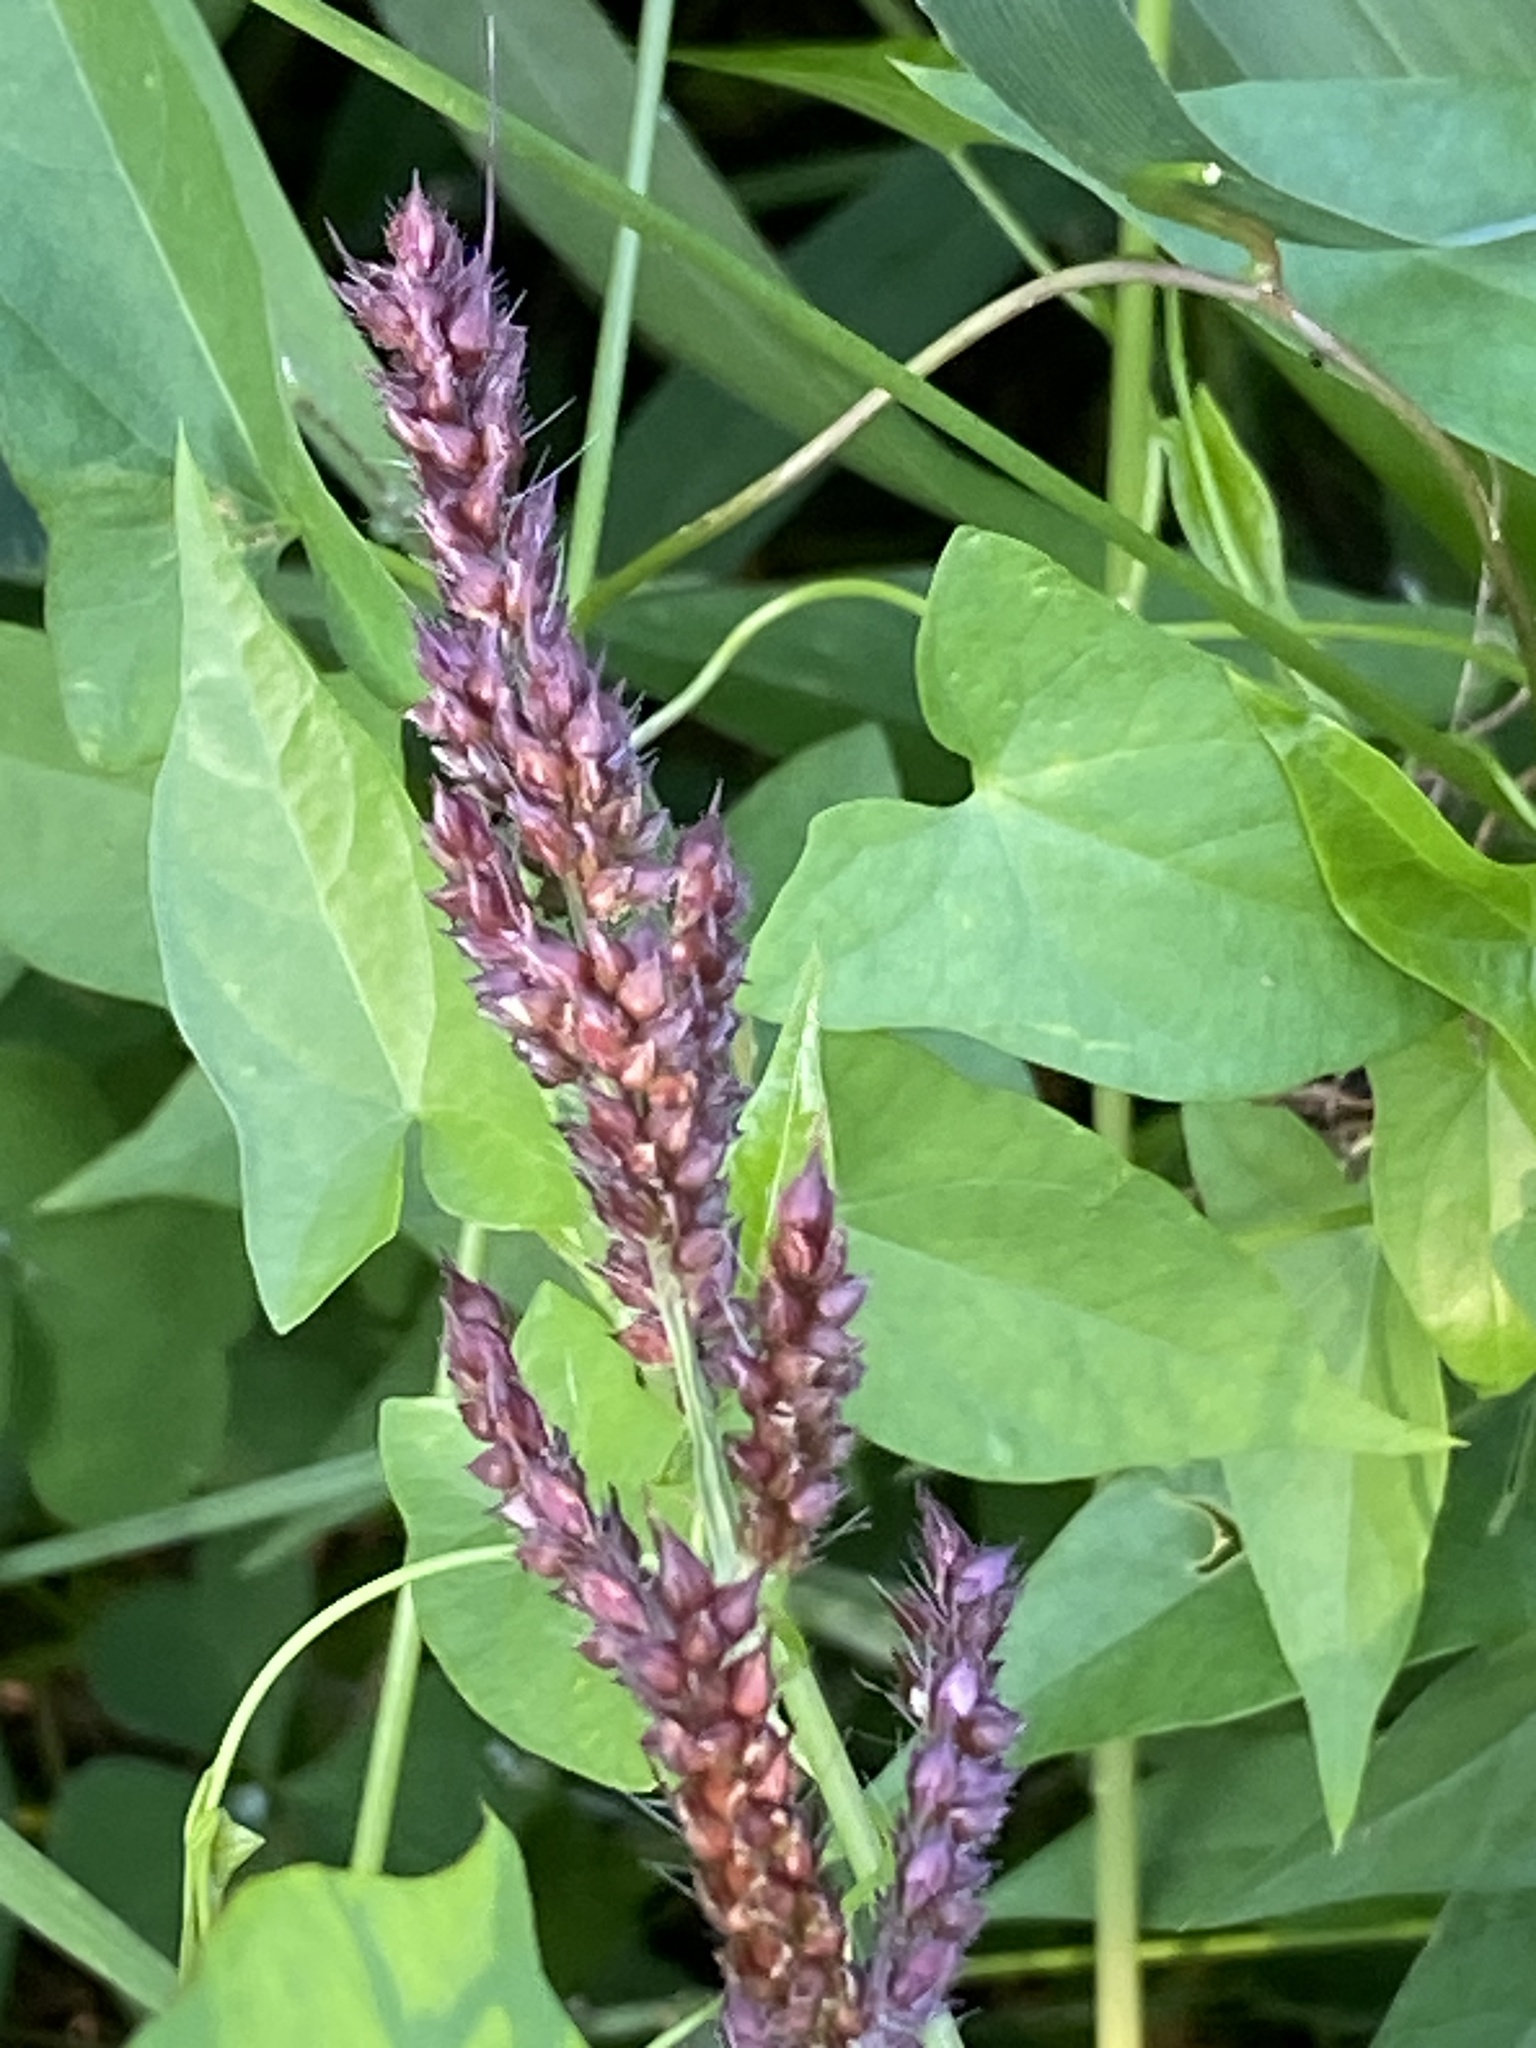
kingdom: Plantae
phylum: Tracheophyta
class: Liliopsida
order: Poales
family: Poaceae
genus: Echinochloa
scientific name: Echinochloa crus-galli
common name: Cockspur
